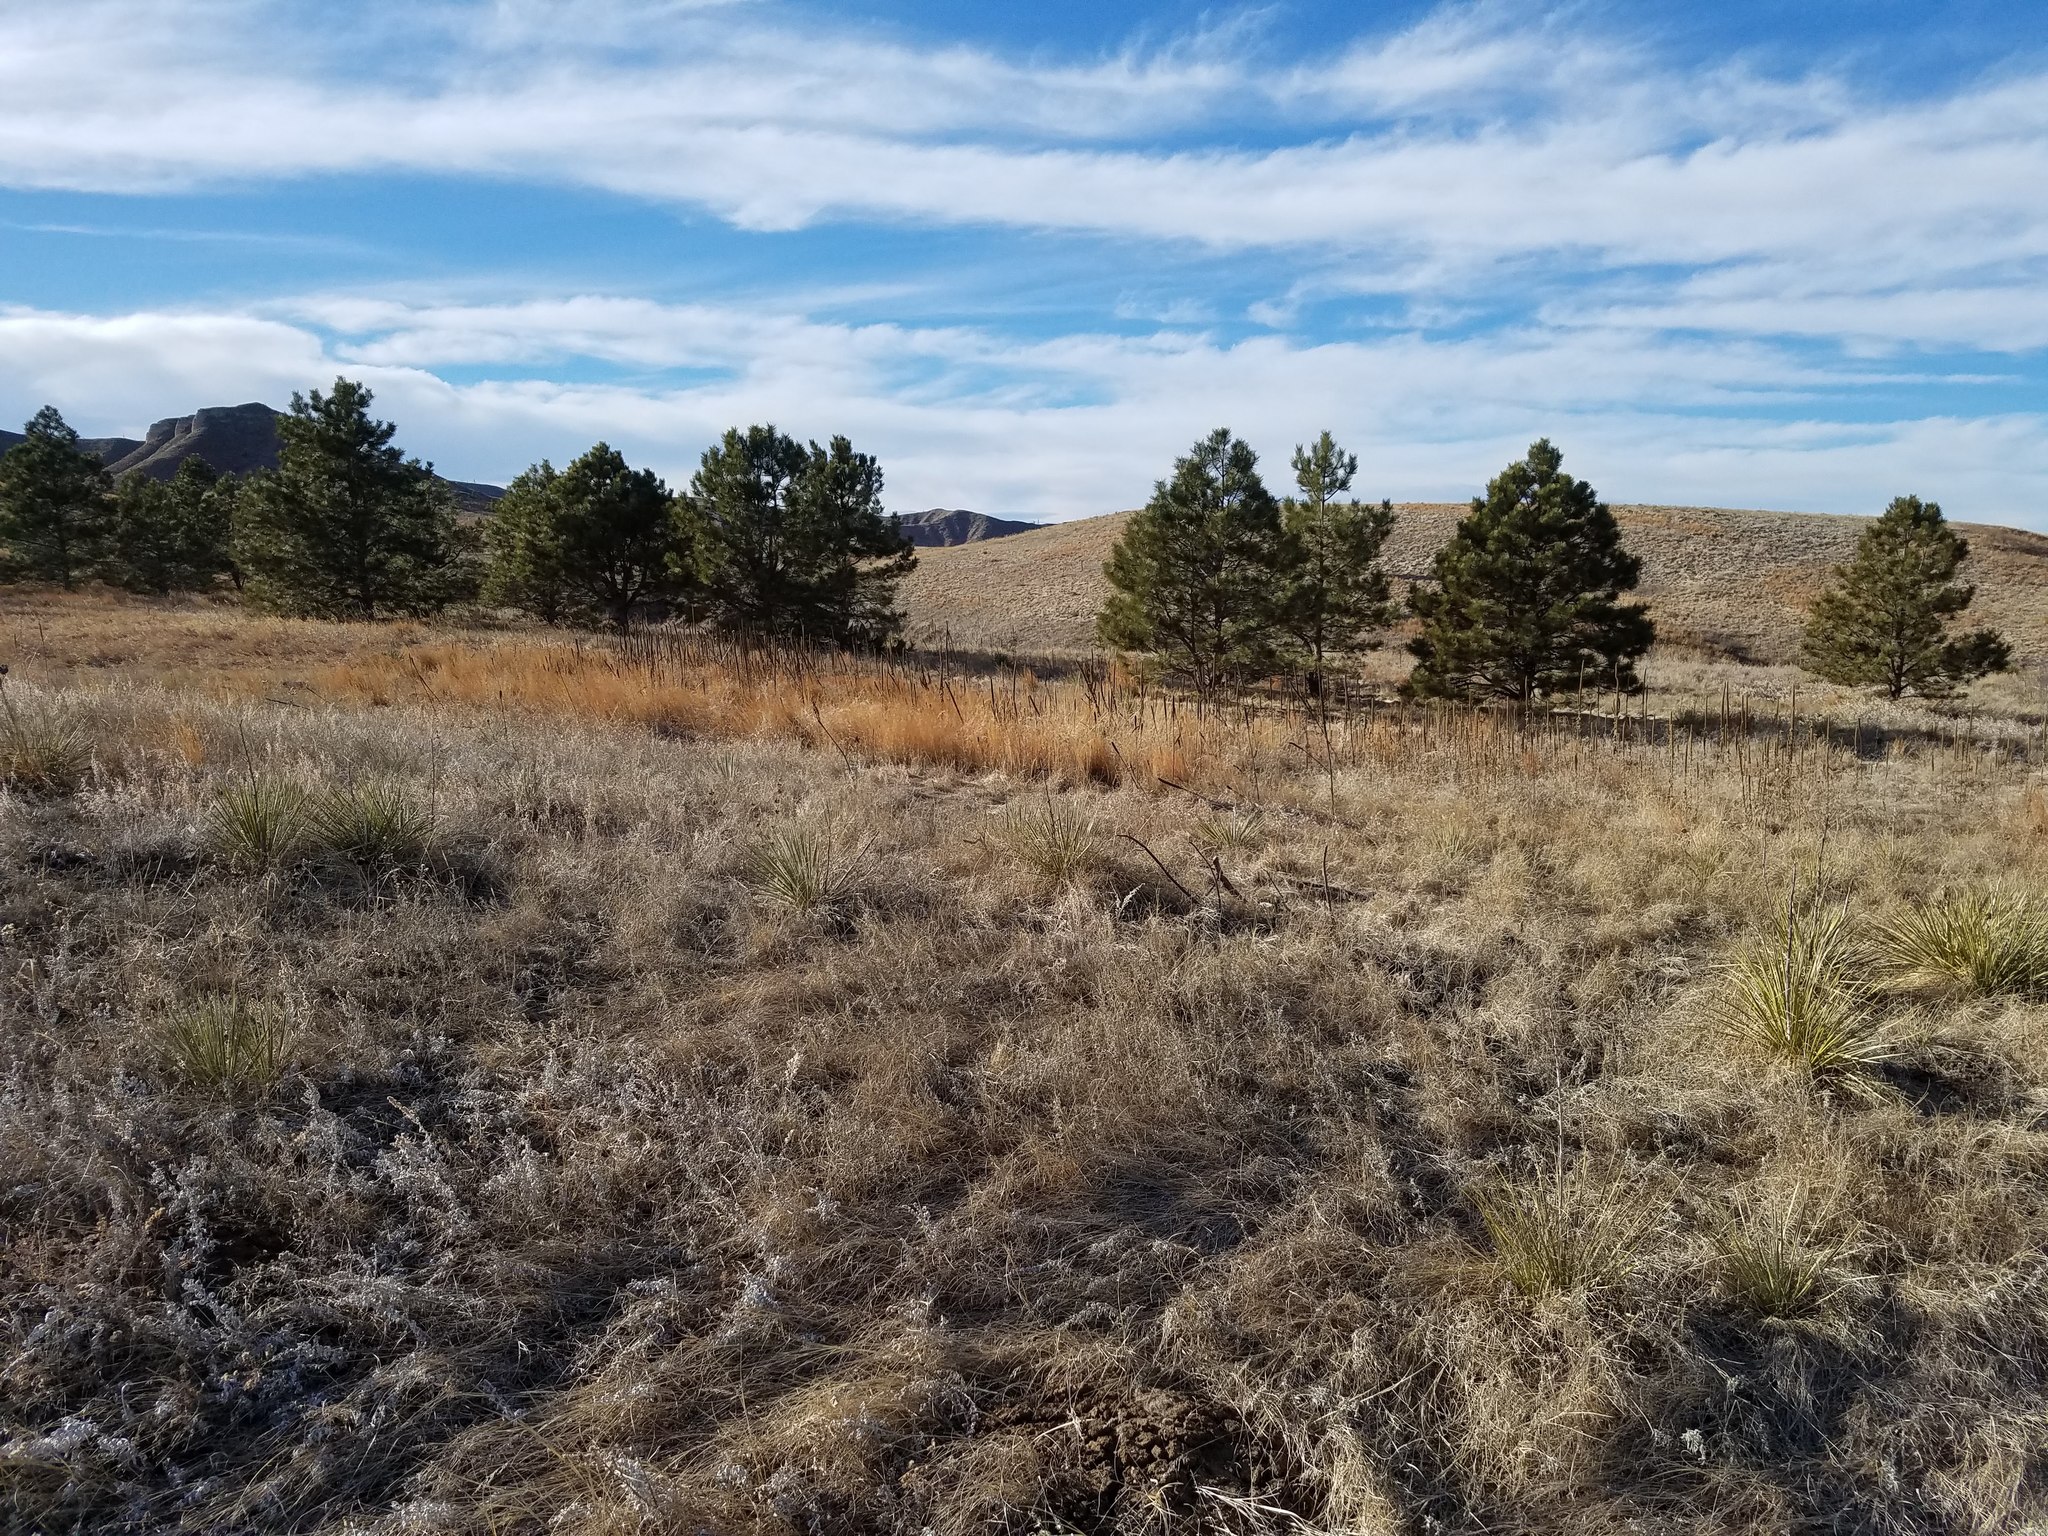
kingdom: Plantae
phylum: Tracheophyta
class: Magnoliopsida
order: Lamiales
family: Scrophulariaceae
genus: Verbascum
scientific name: Verbascum thapsus
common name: Common mullein
